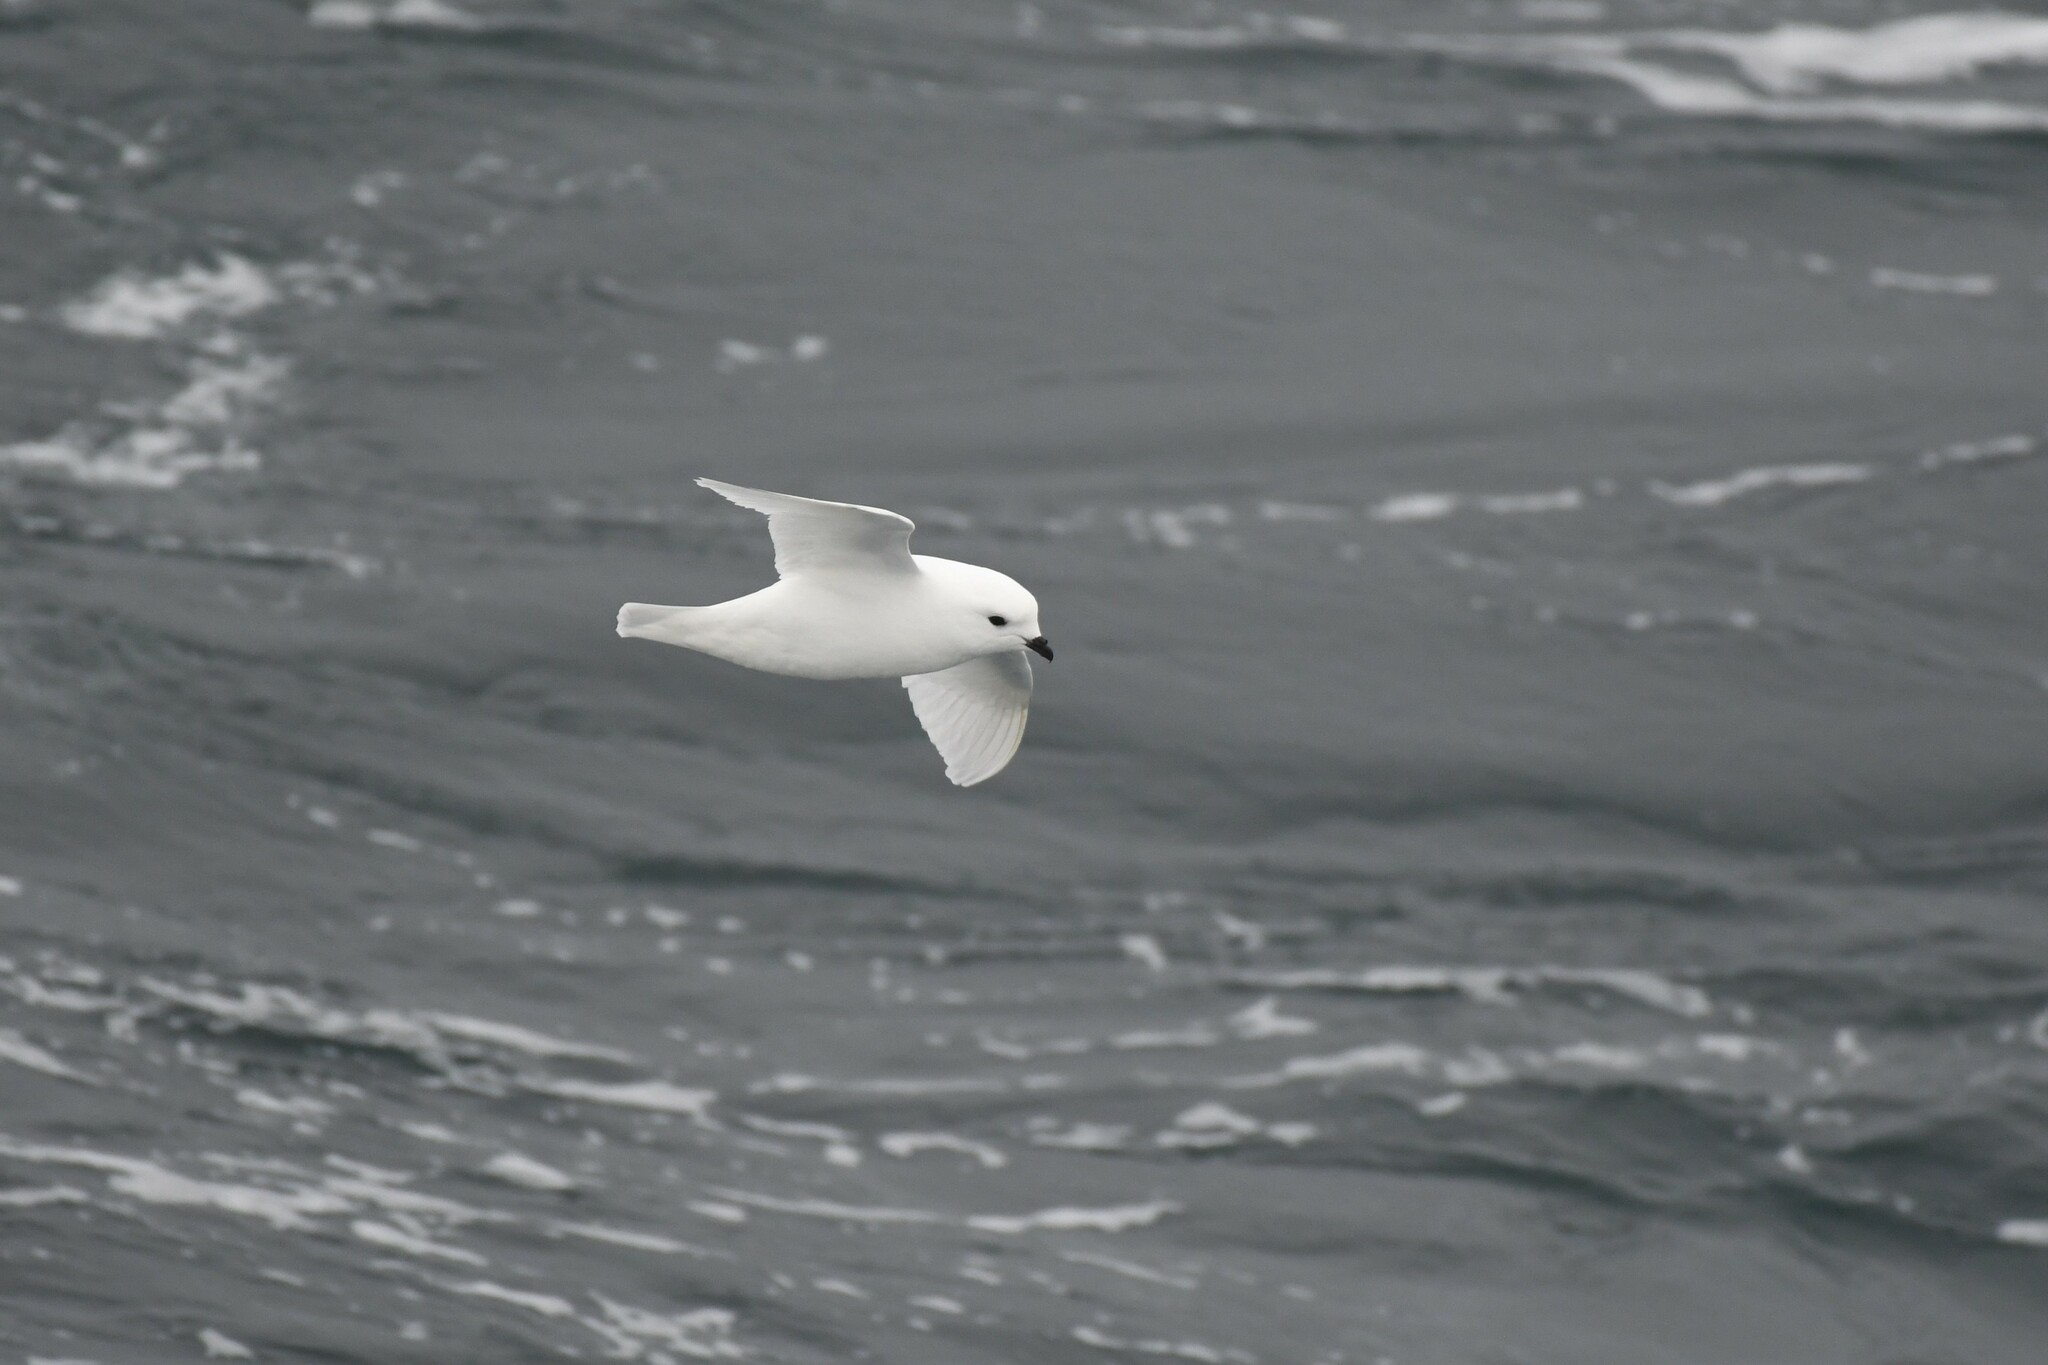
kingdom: Animalia
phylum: Chordata
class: Aves
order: Procellariiformes
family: Procellariidae
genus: Pagodroma
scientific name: Pagodroma nivea
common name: Snow petrel
